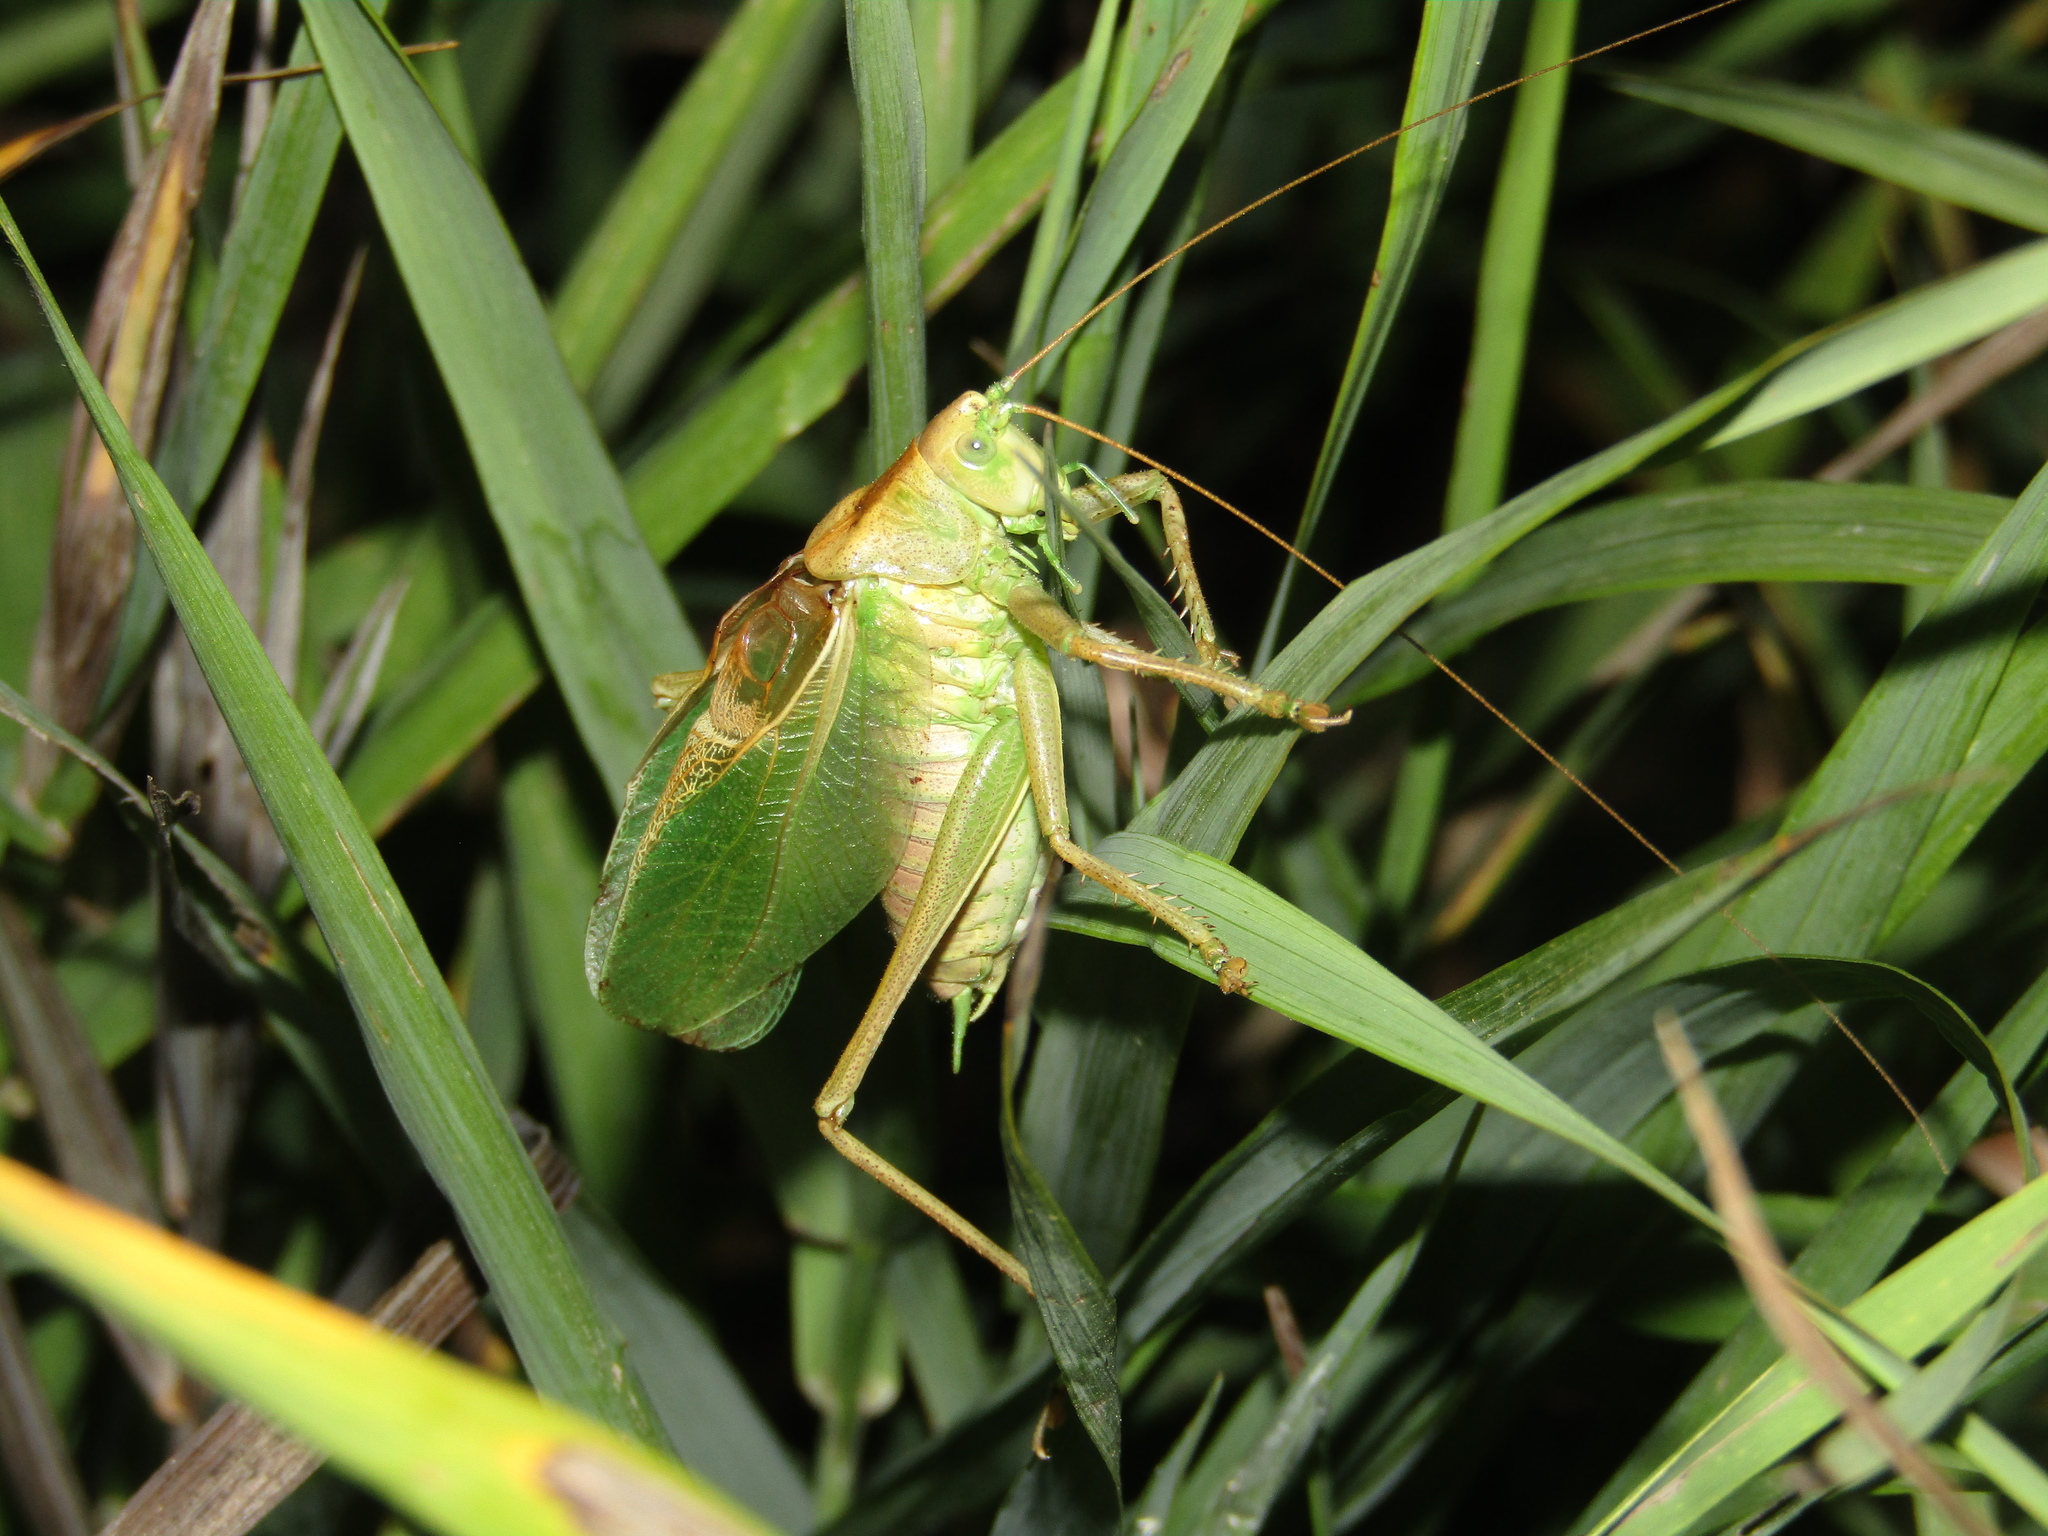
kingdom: Animalia
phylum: Arthropoda
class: Insecta
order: Orthoptera
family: Tettigoniidae
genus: Tettigonia
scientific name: Tettigonia cantans
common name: Upland green bush-cricket
